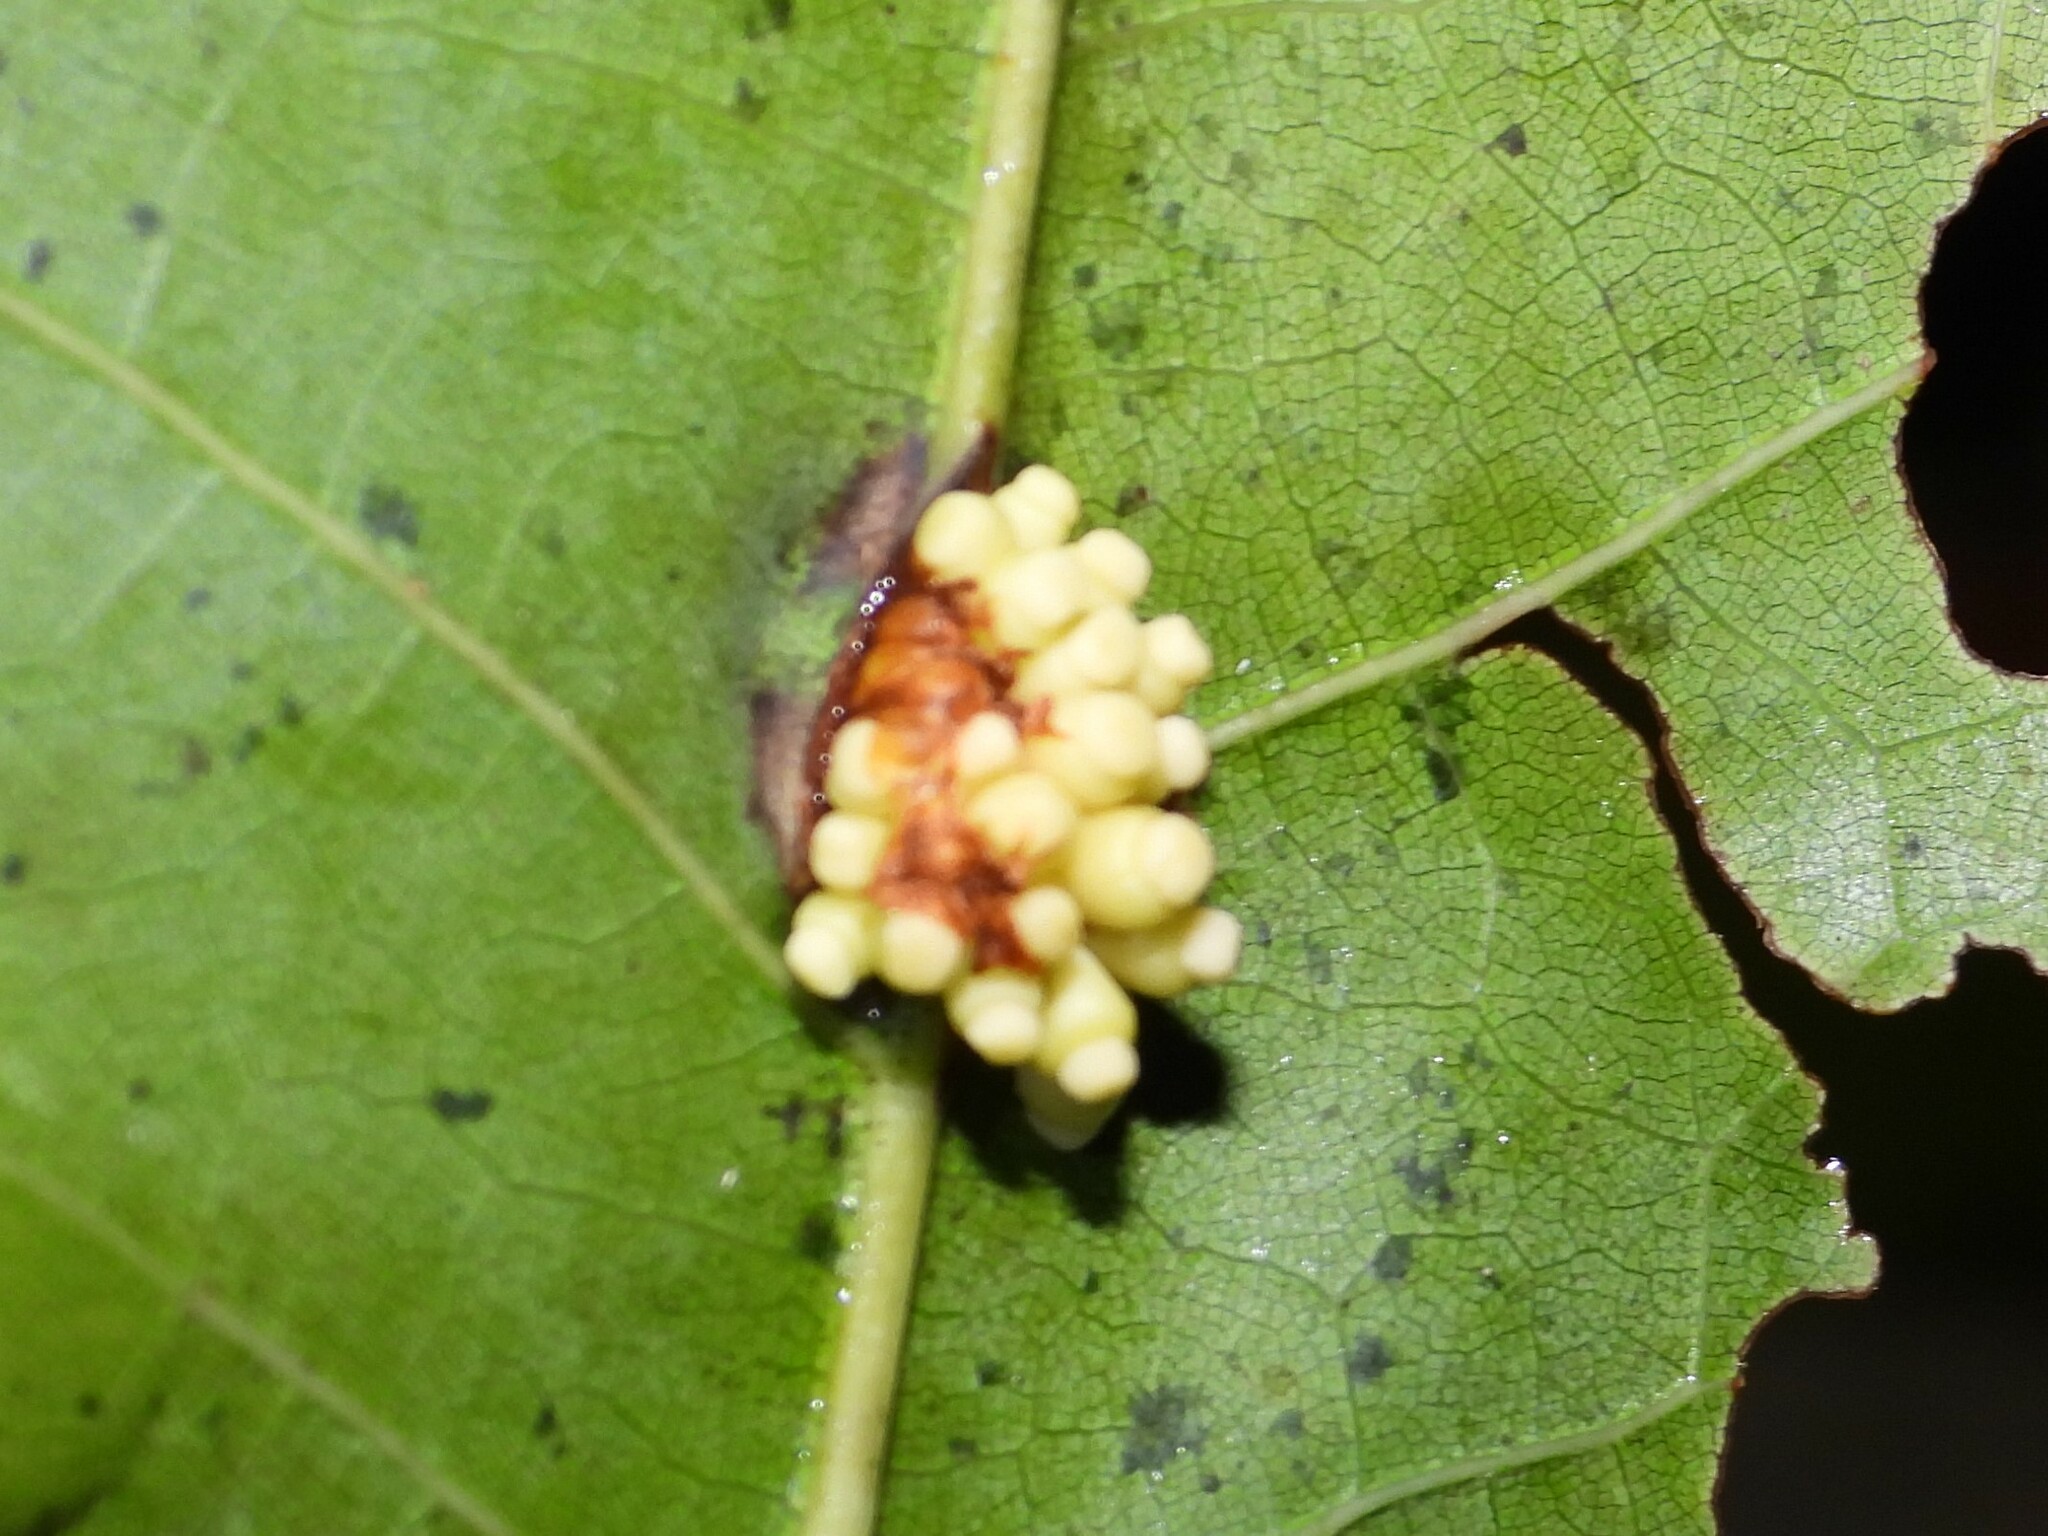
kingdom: Animalia
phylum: Arthropoda
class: Insecta
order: Hymenoptera
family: Cynipidae
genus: Kokkocynips
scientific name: Kokkocynips decidua
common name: Oak wheat gall
